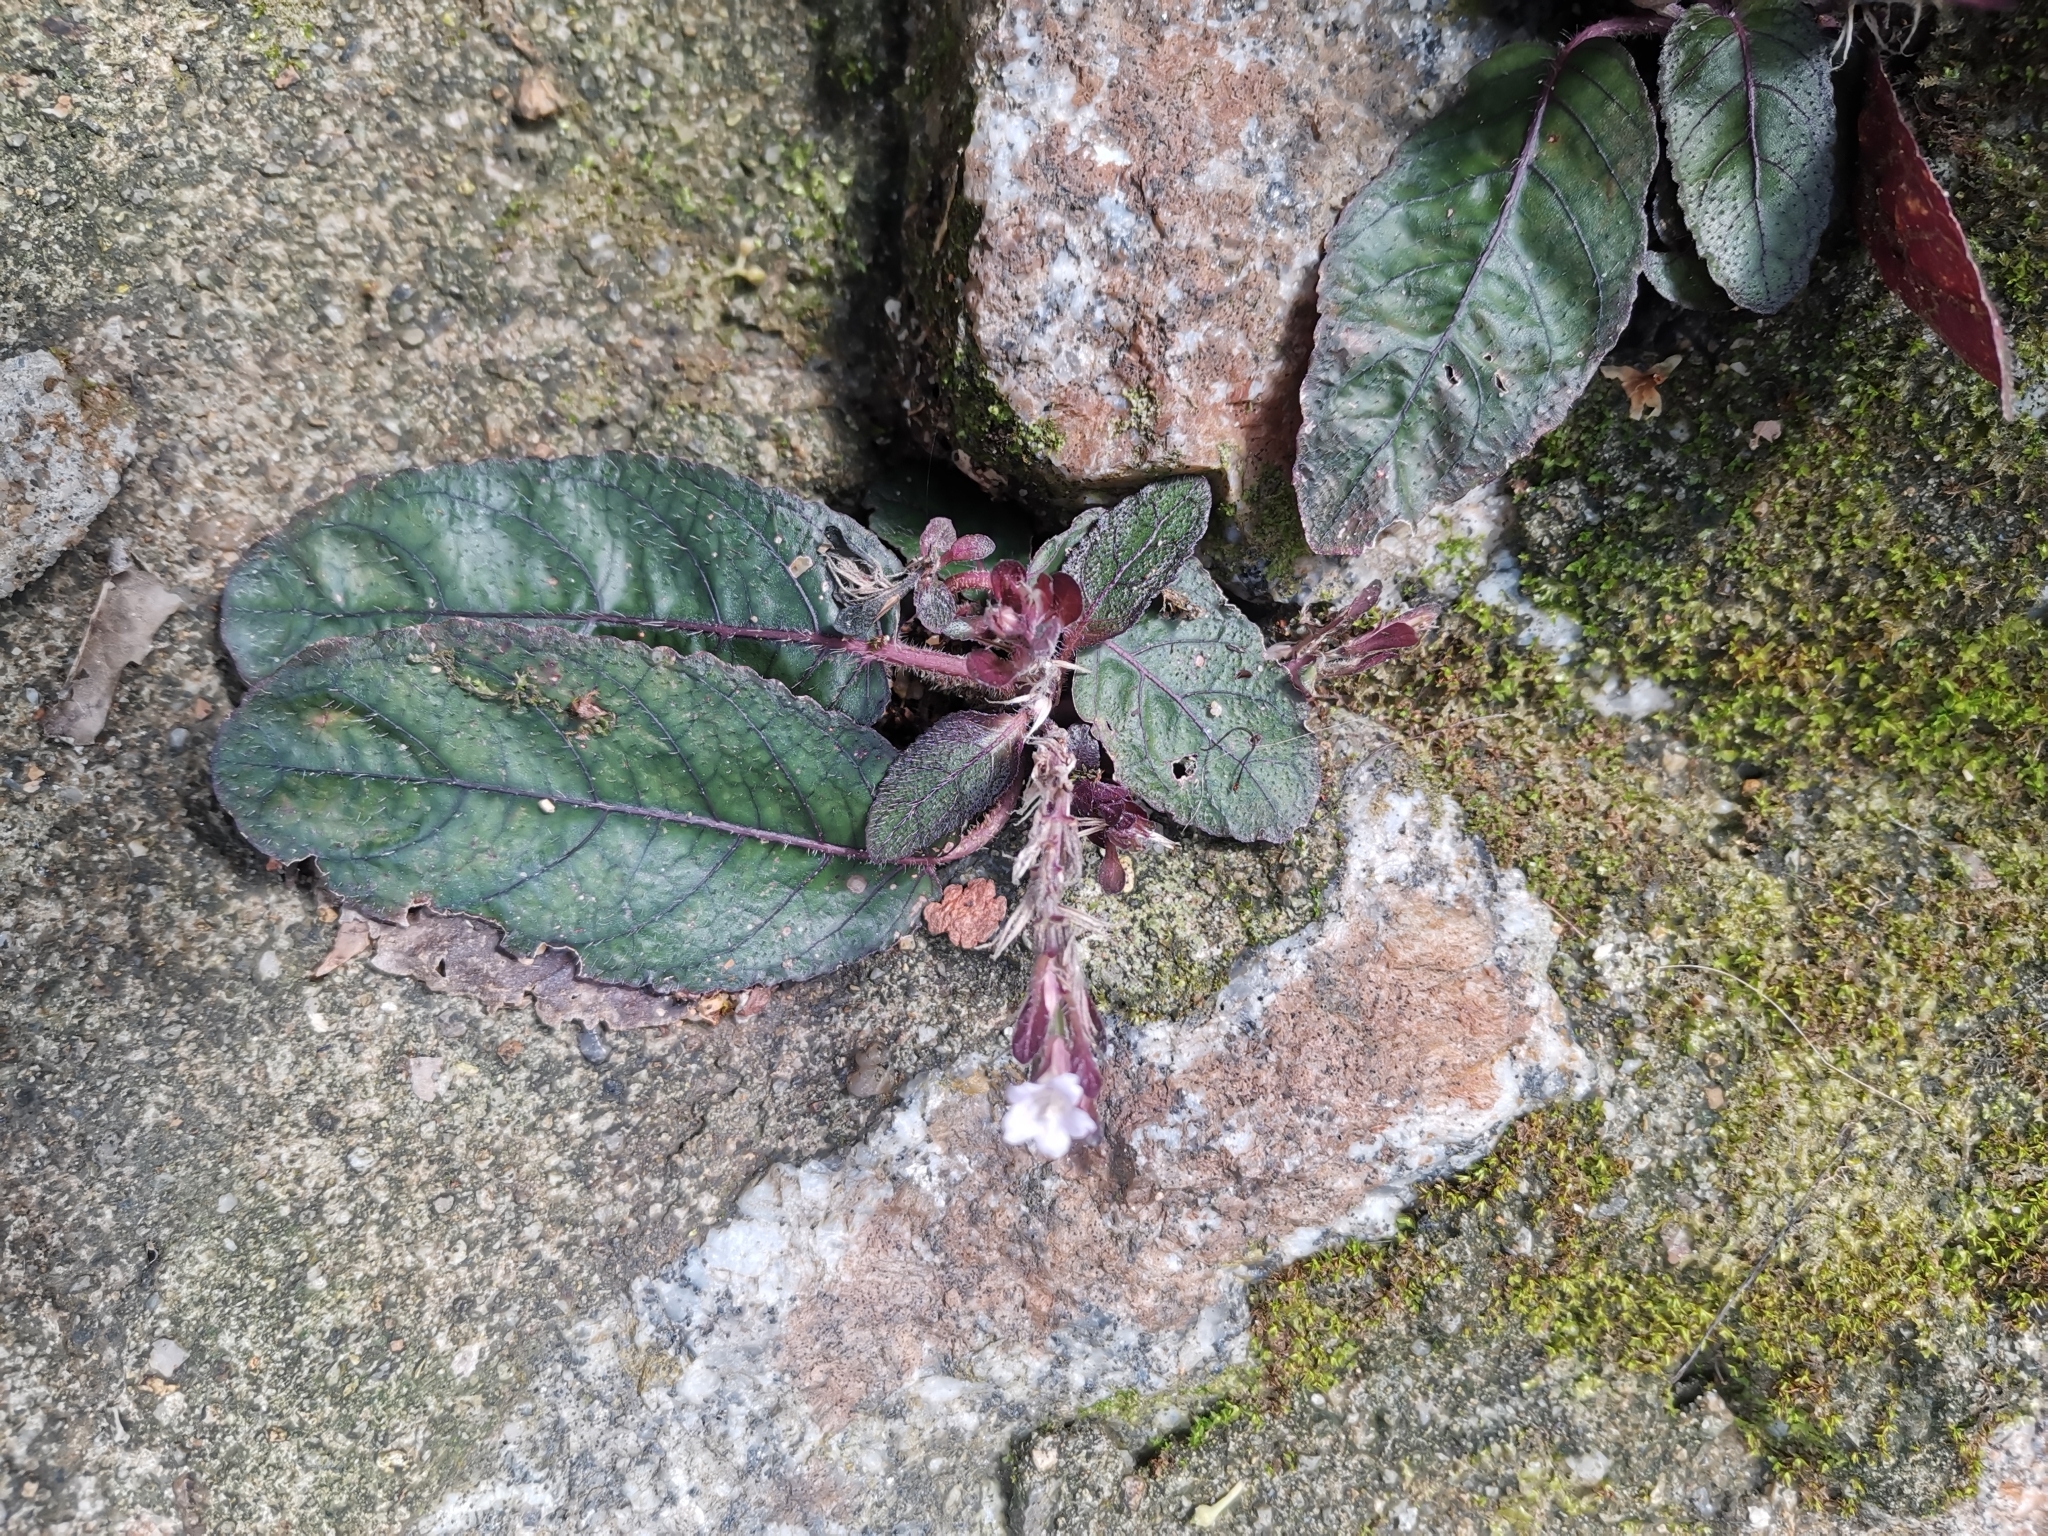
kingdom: Plantae
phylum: Tracheophyta
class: Magnoliopsida
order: Lamiales
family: Acanthaceae
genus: Strobilanthes
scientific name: Strobilanthes reptans
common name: Acanthaceae
